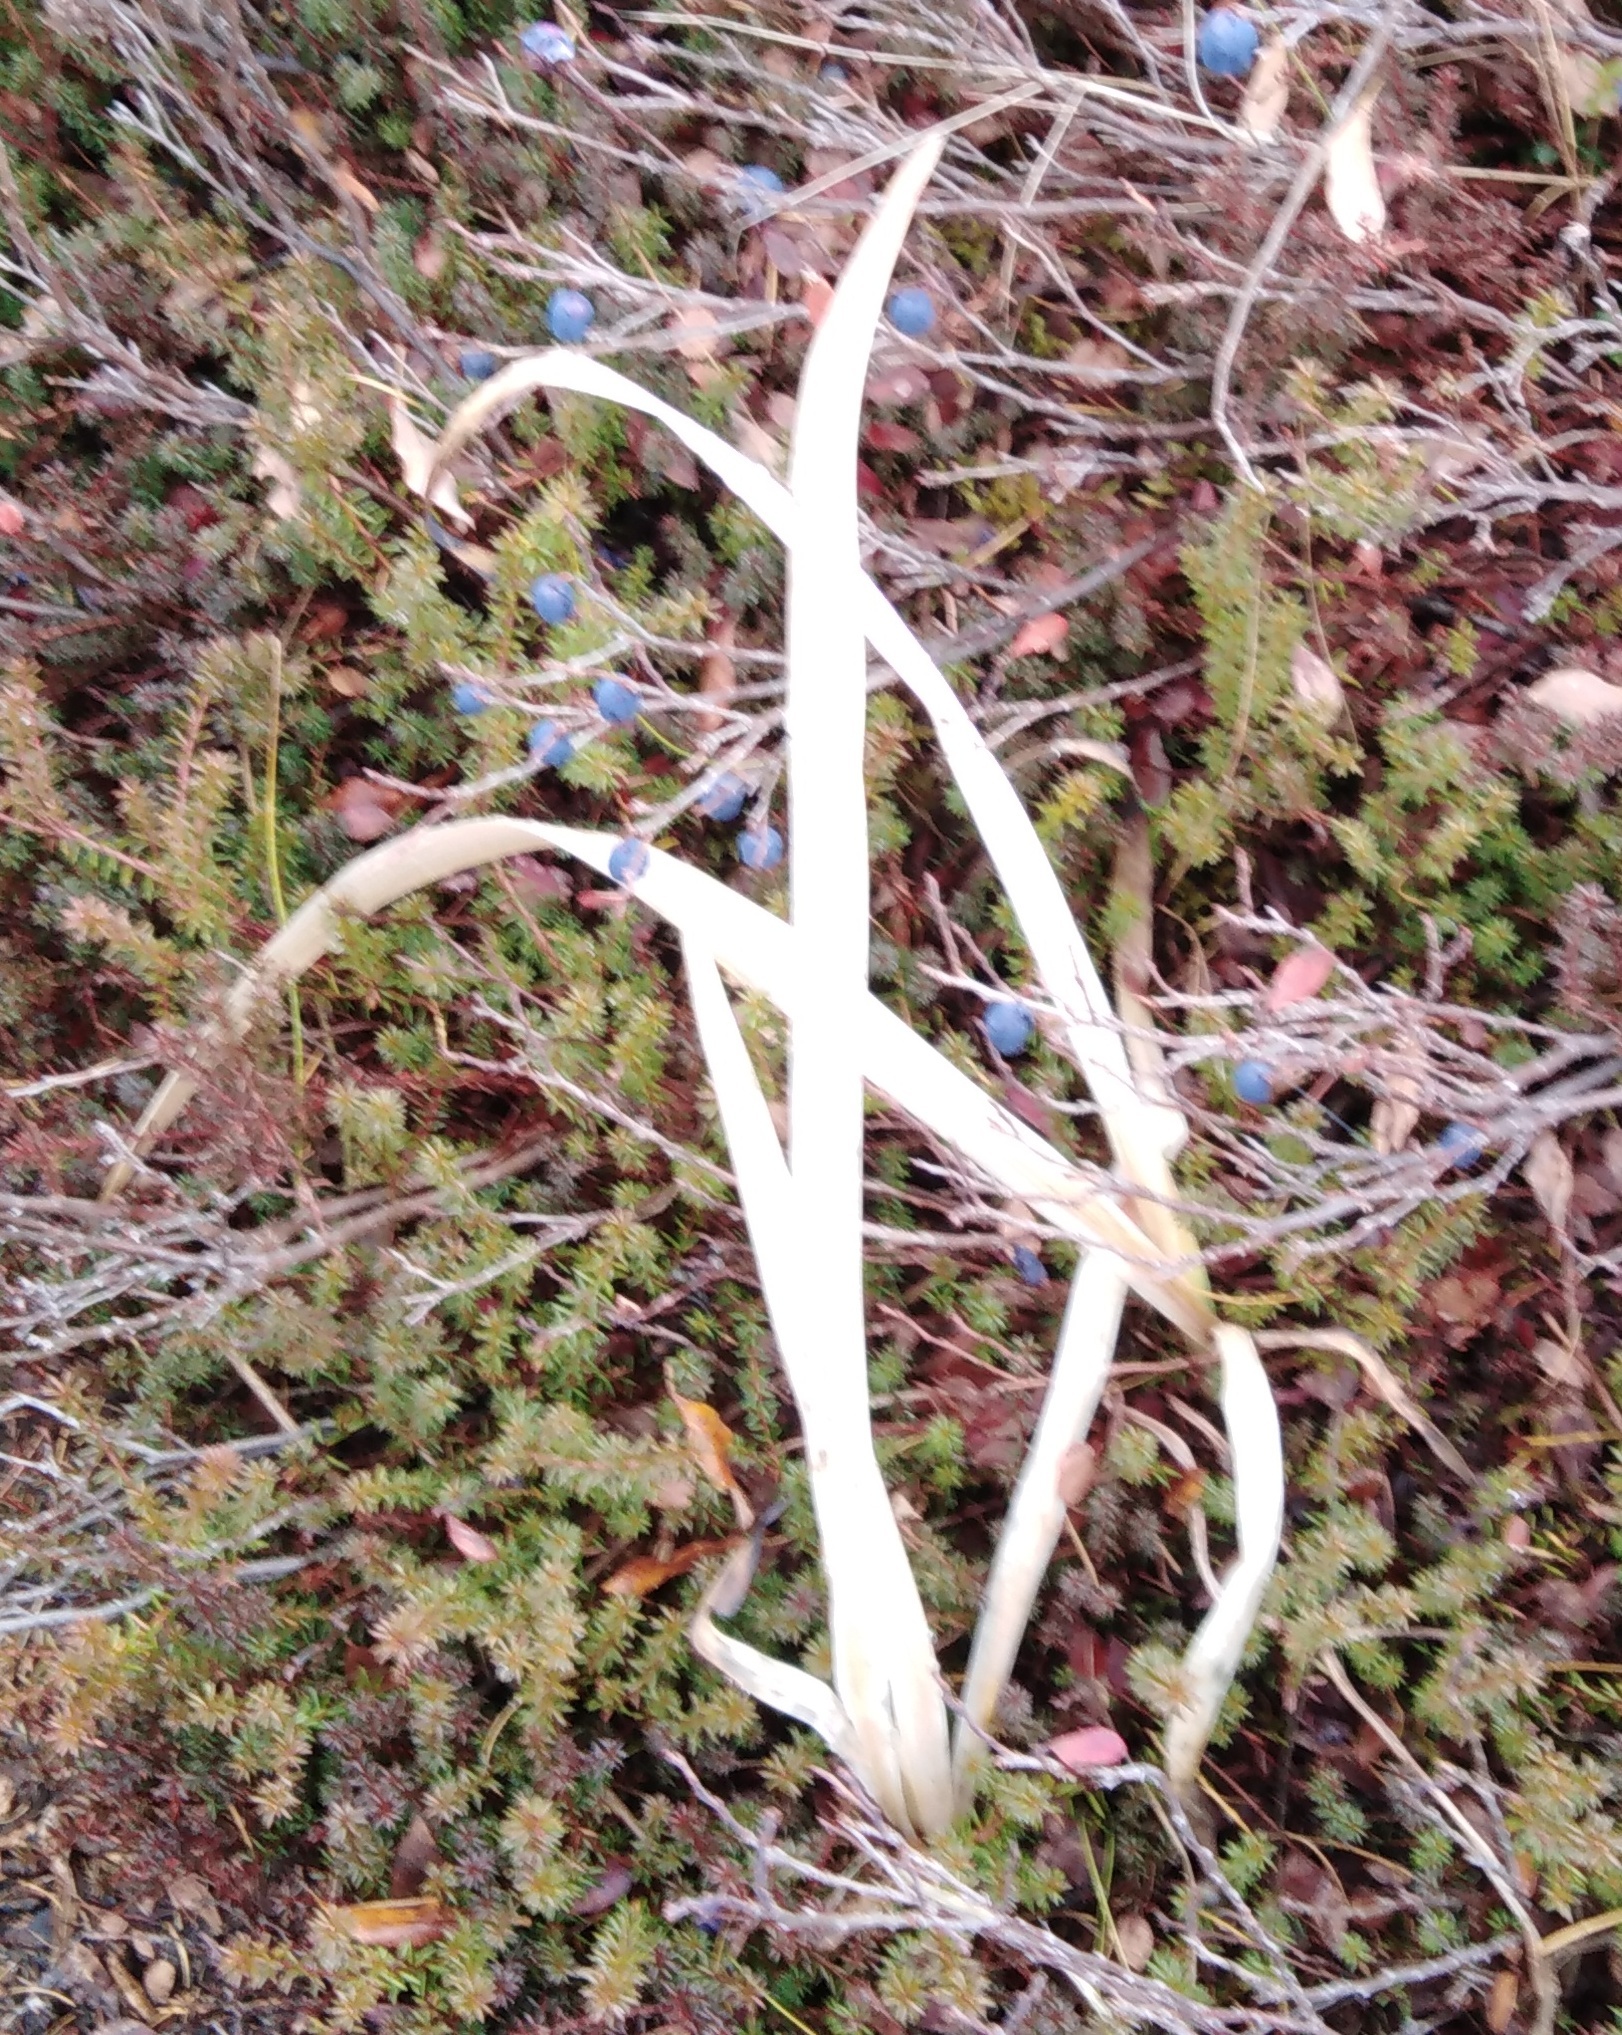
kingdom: Plantae
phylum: Tracheophyta
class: Liliopsida
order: Asparagales
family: Iridaceae
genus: Iris
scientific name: Iris setosa
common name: Arctic blue flag
